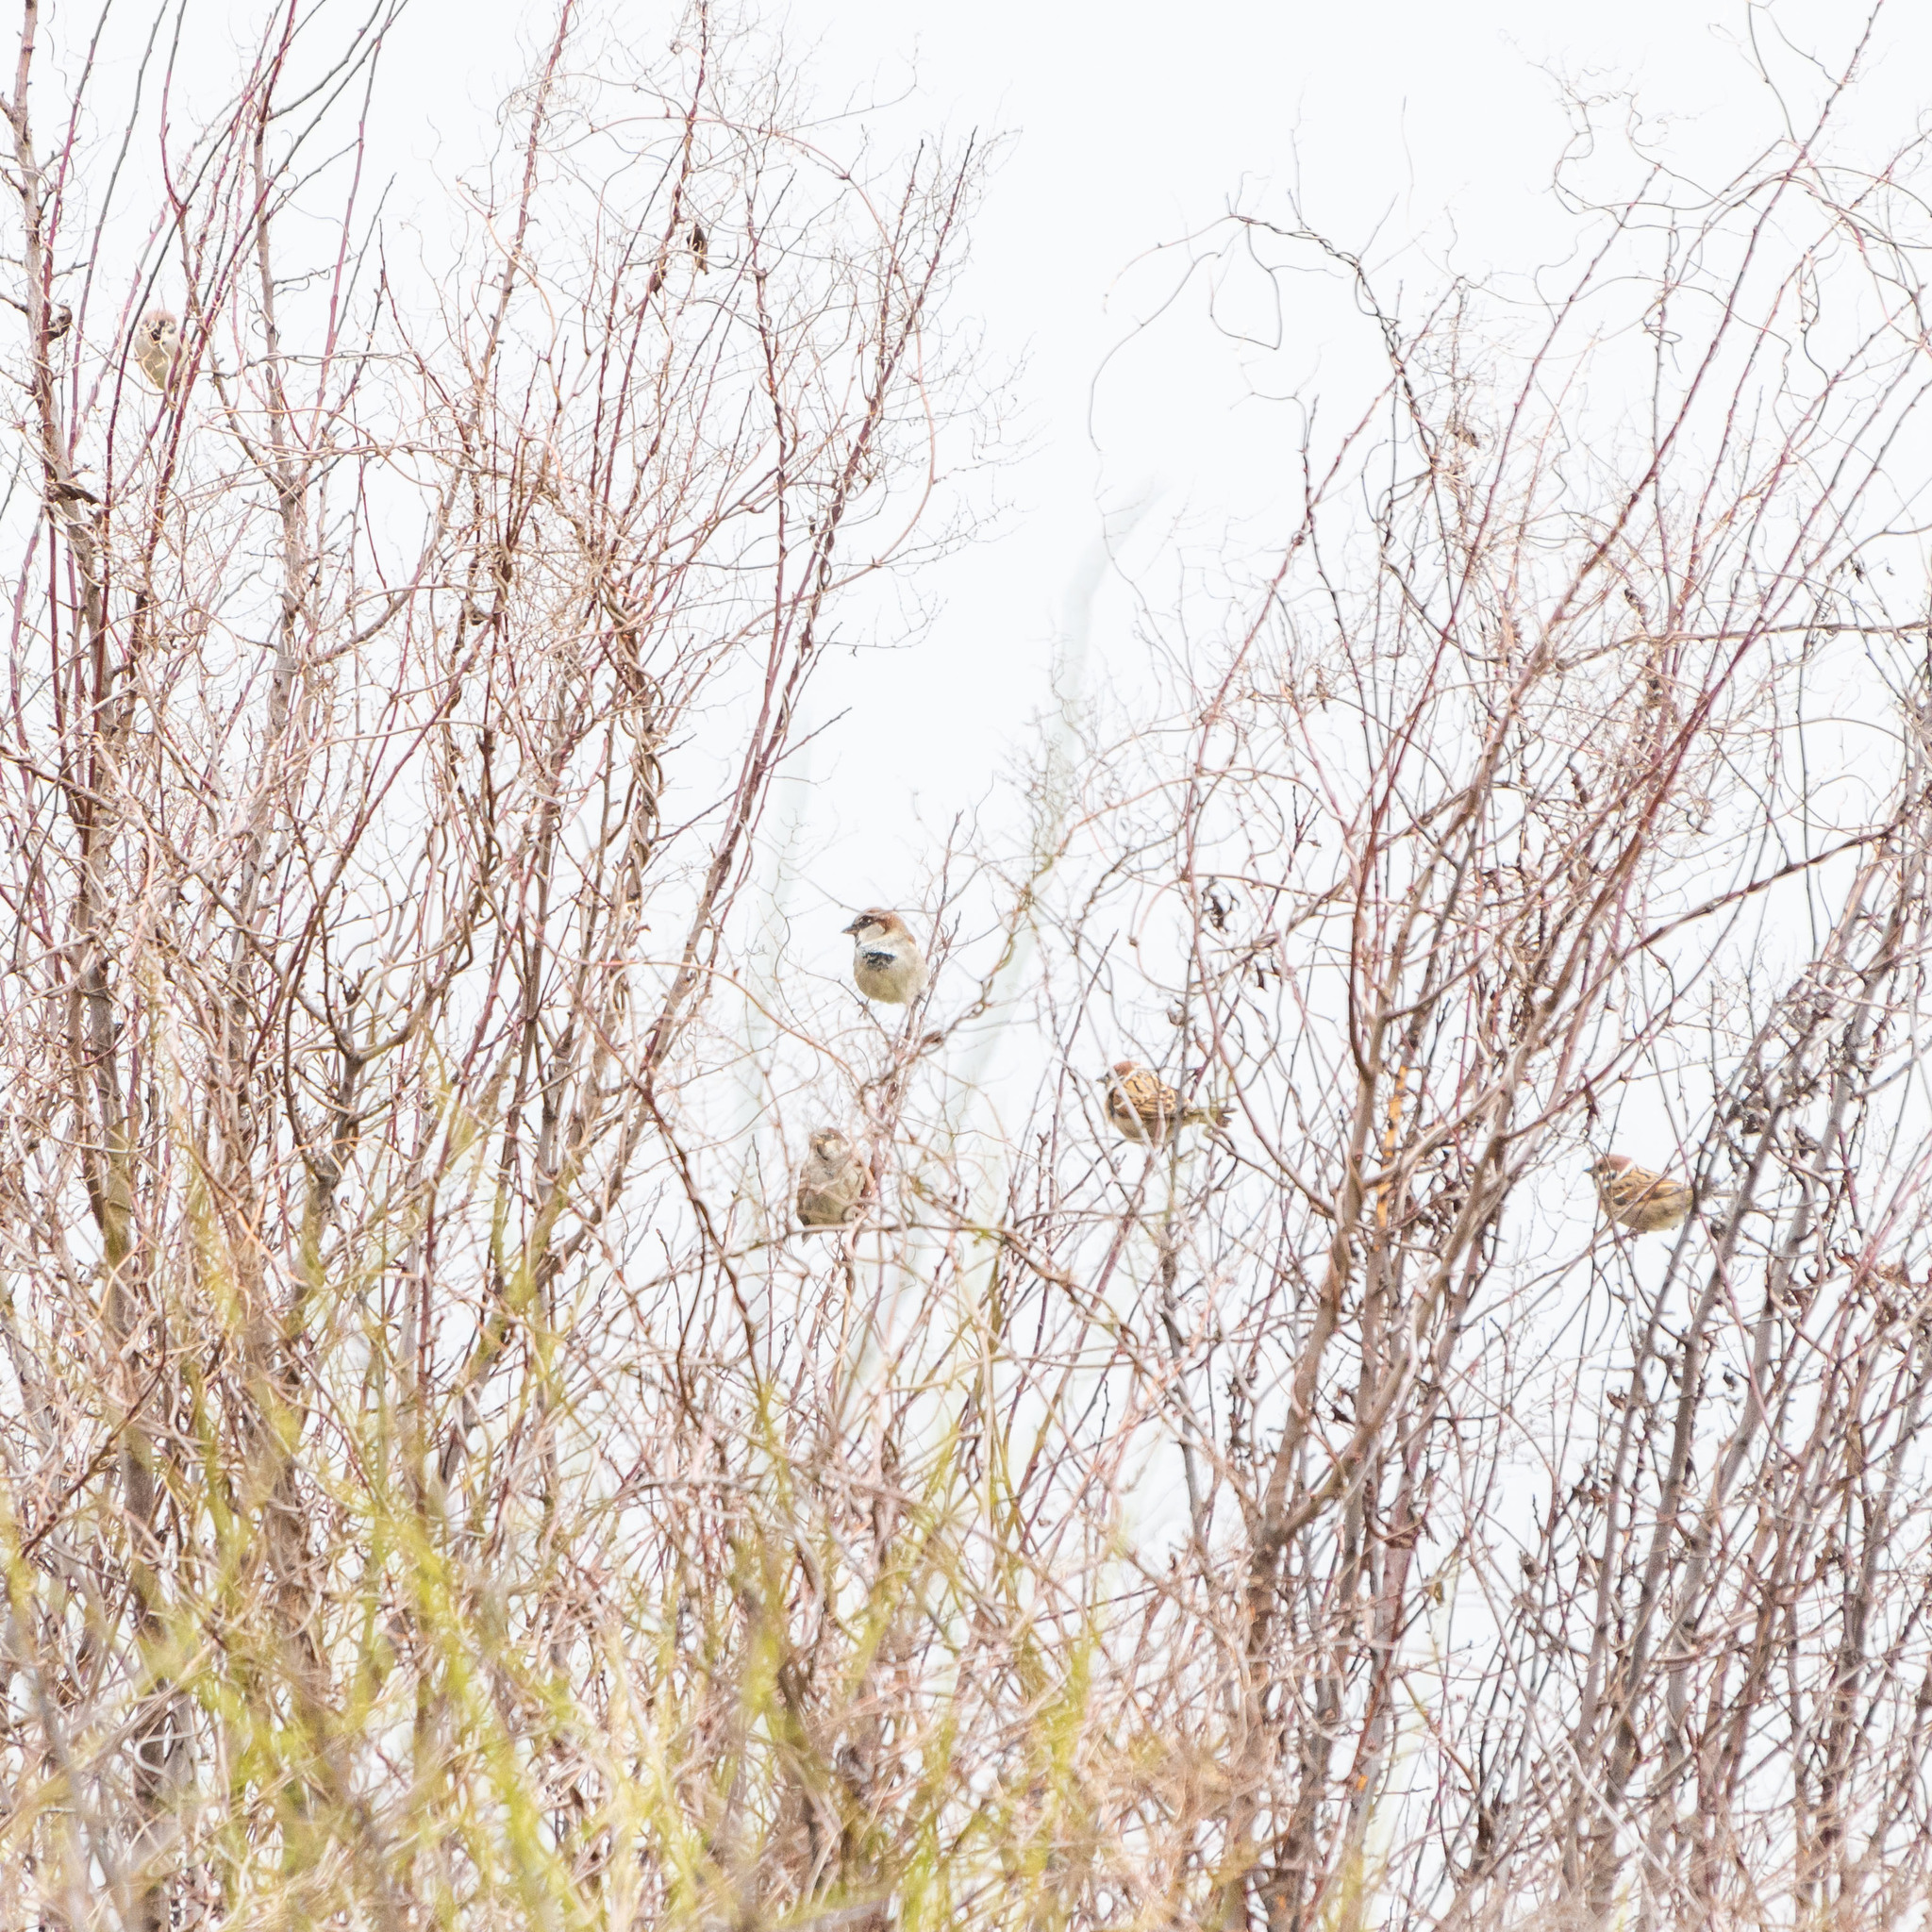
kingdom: Animalia
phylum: Chordata
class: Aves
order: Passeriformes
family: Passeridae
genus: Passer
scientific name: Passer domesticus
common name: House sparrow
